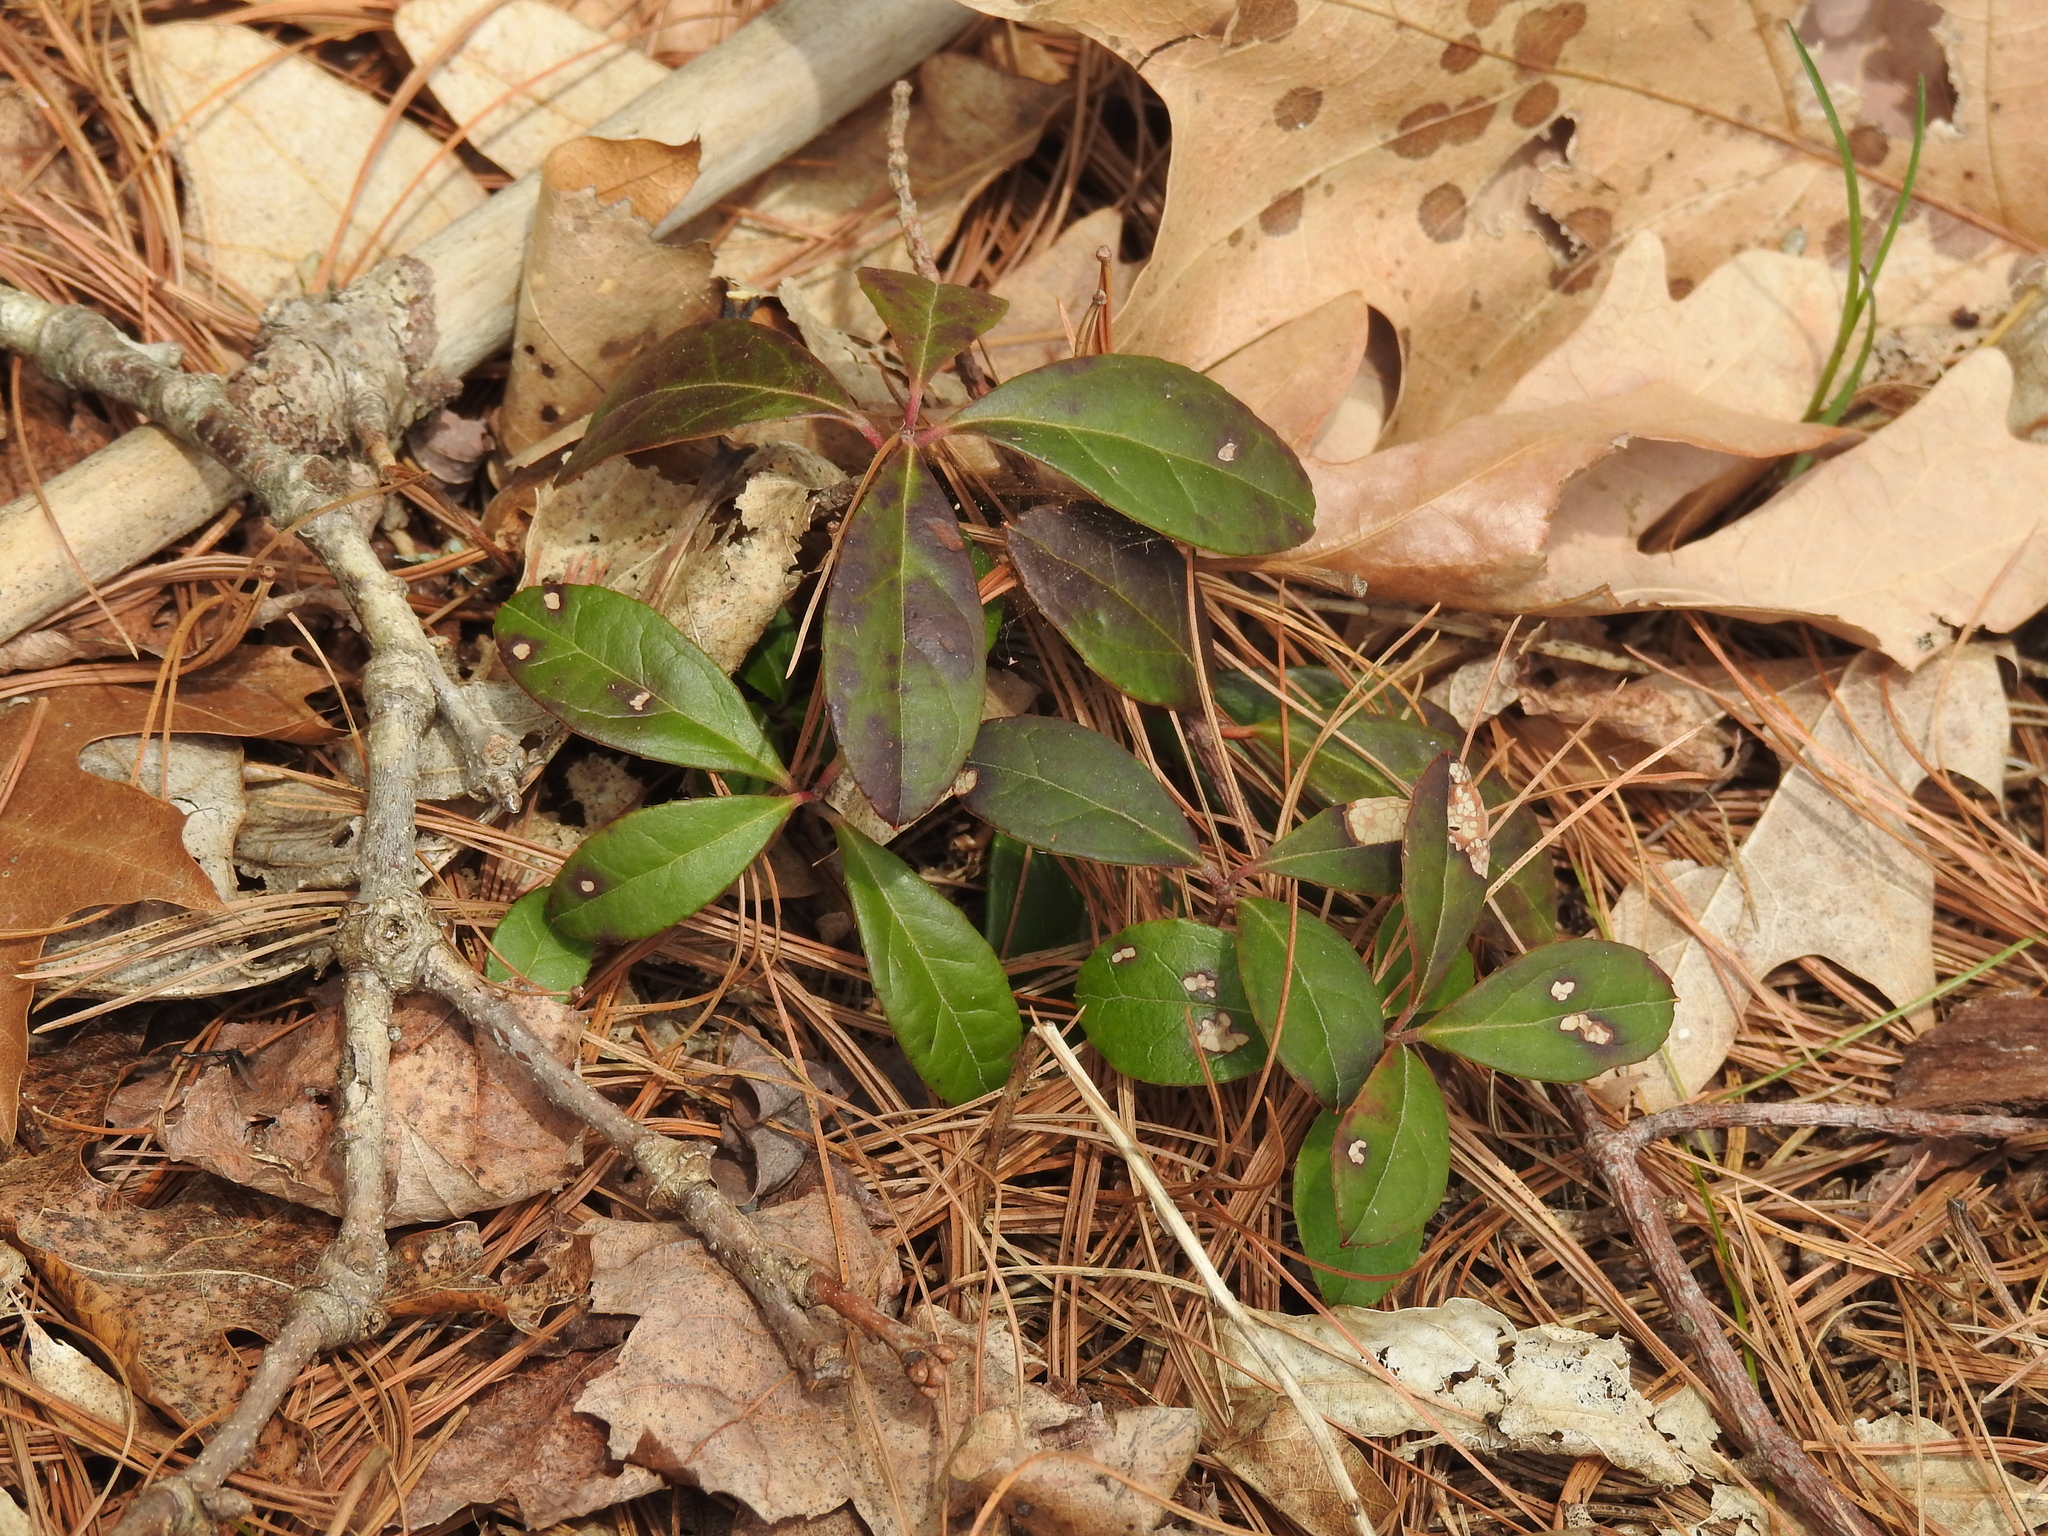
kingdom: Plantae
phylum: Tracheophyta
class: Magnoliopsida
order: Ericales
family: Ericaceae
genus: Gaultheria
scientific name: Gaultheria procumbens
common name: Checkerberry
